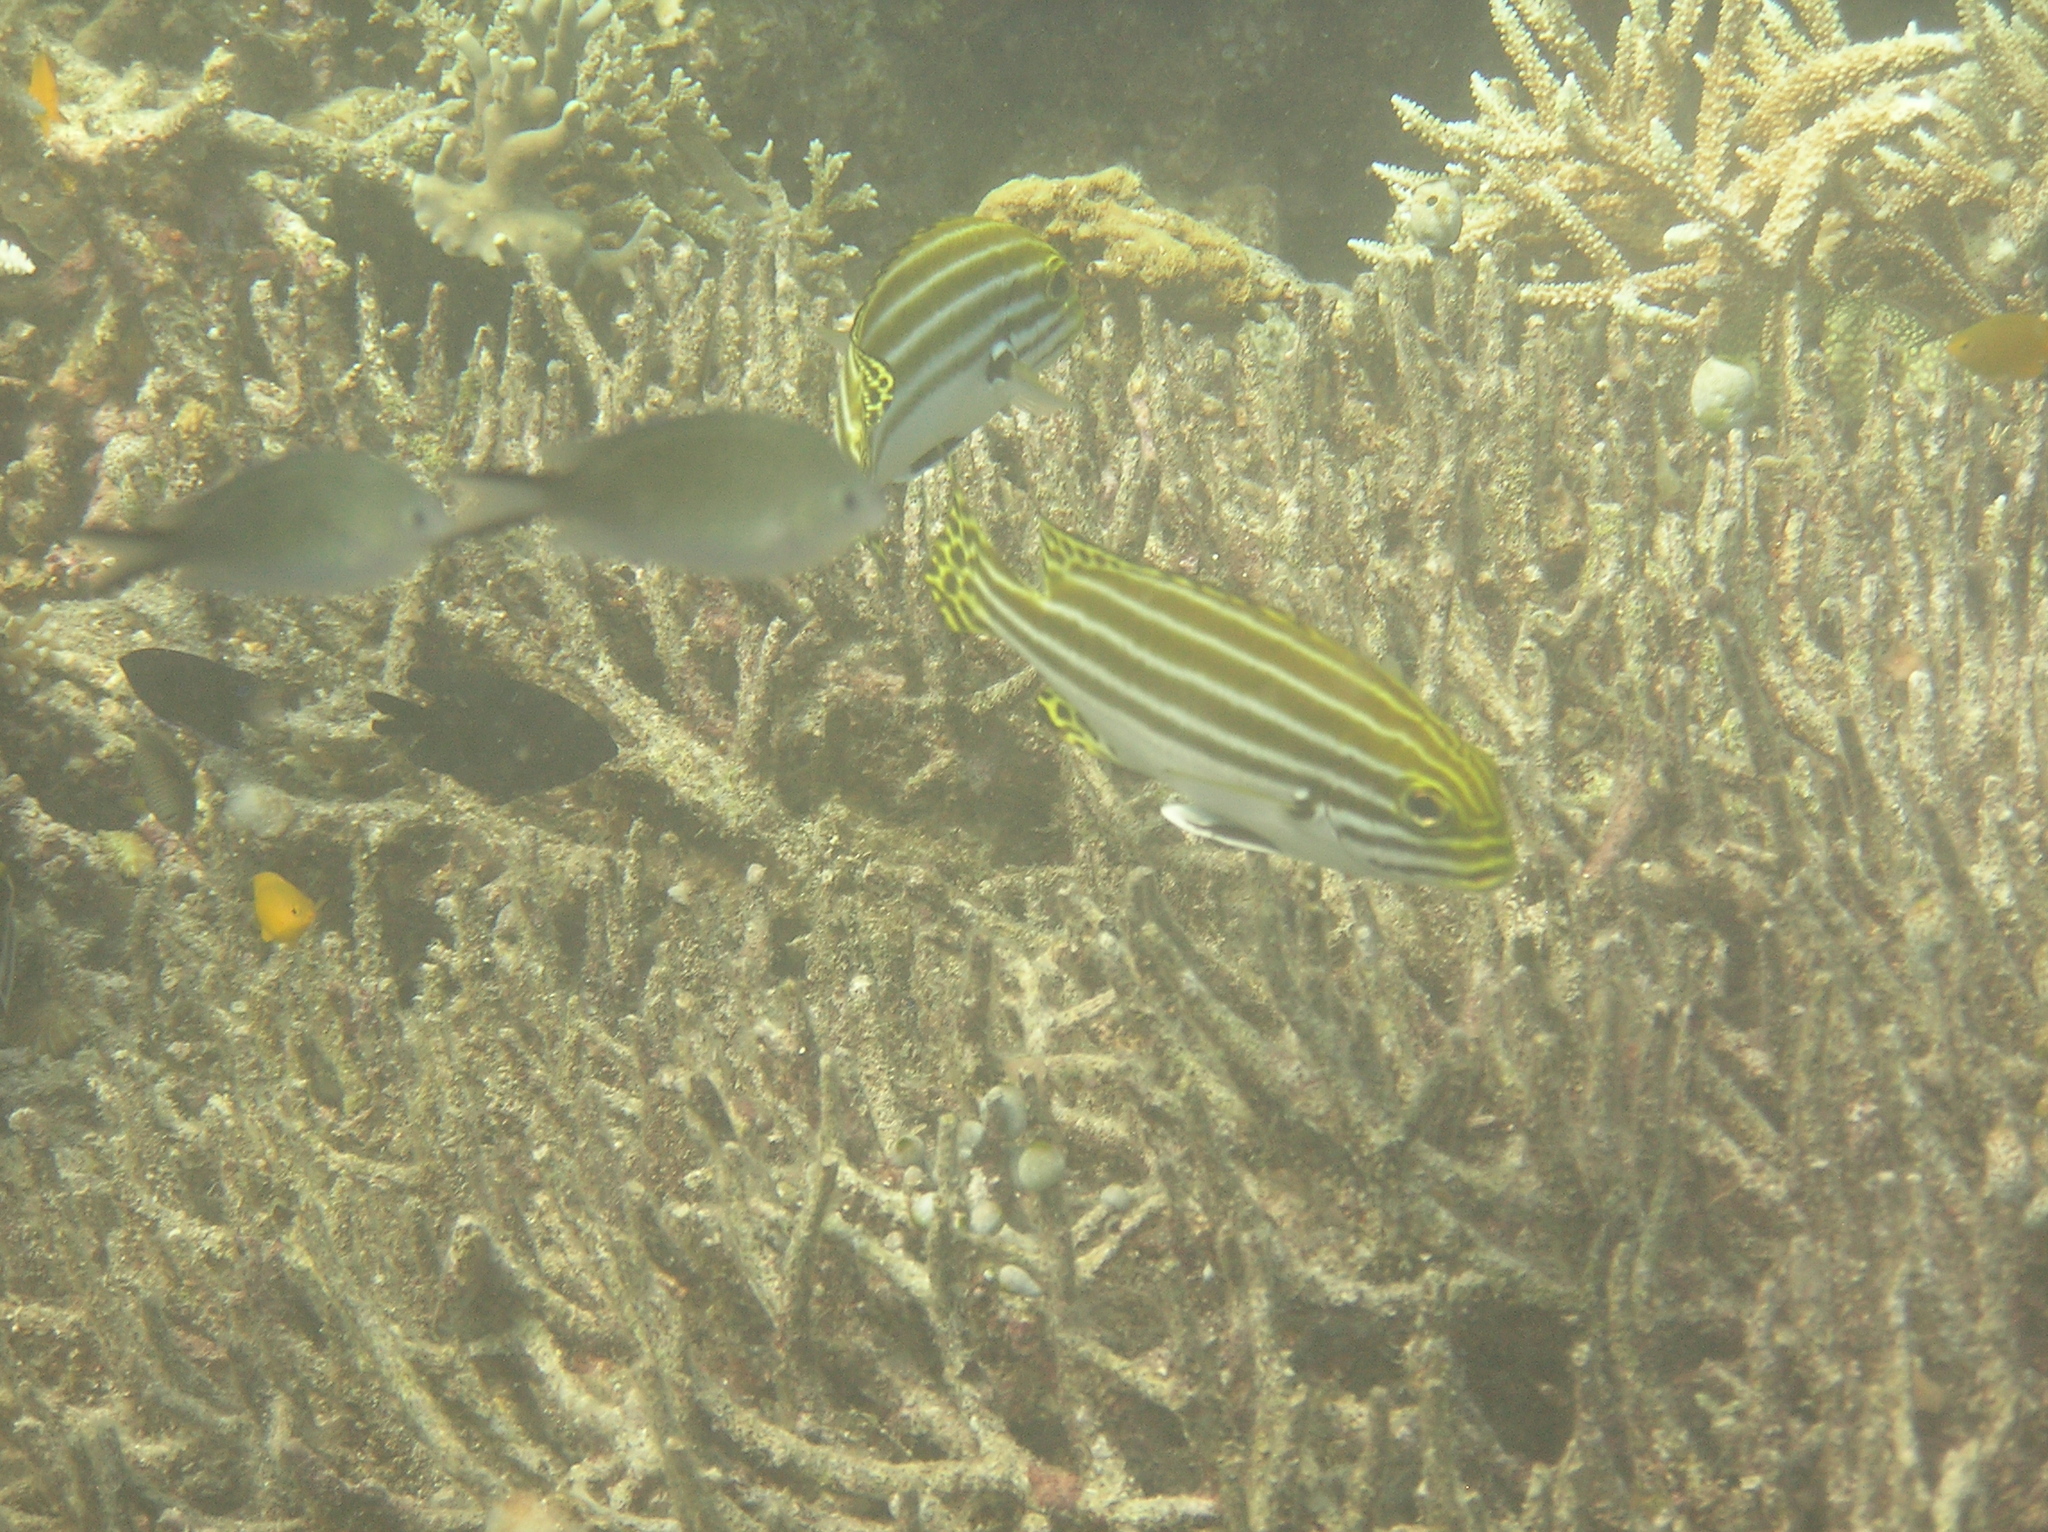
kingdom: Animalia
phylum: Chordata
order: Perciformes
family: Haemulidae
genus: Plectorhinchus
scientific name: Plectorhinchus lessonii
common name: Lesson's thicklip
